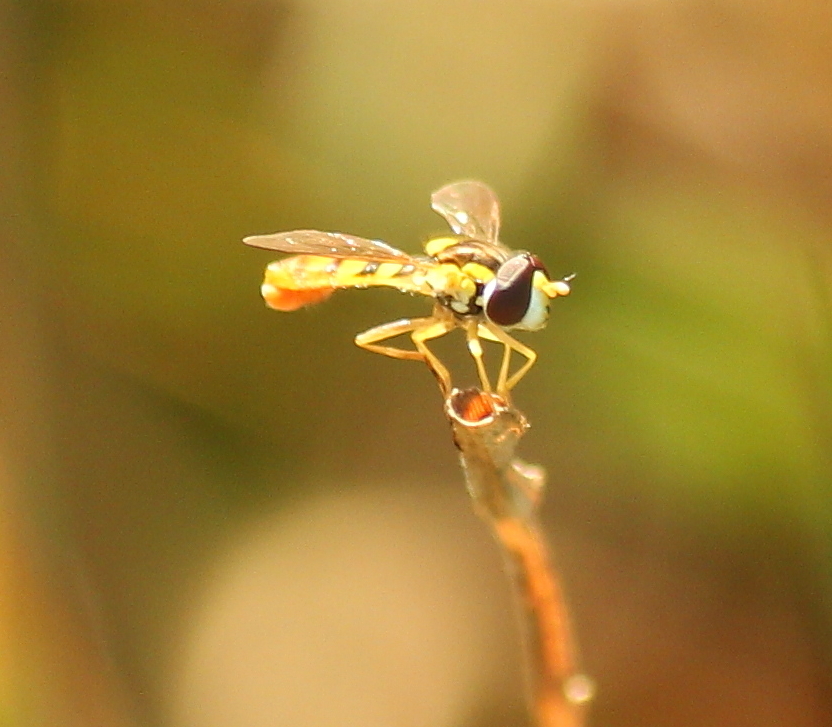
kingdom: Animalia
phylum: Arthropoda
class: Insecta
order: Diptera
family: Syrphidae
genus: Sphaerophoria
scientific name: Sphaerophoria
